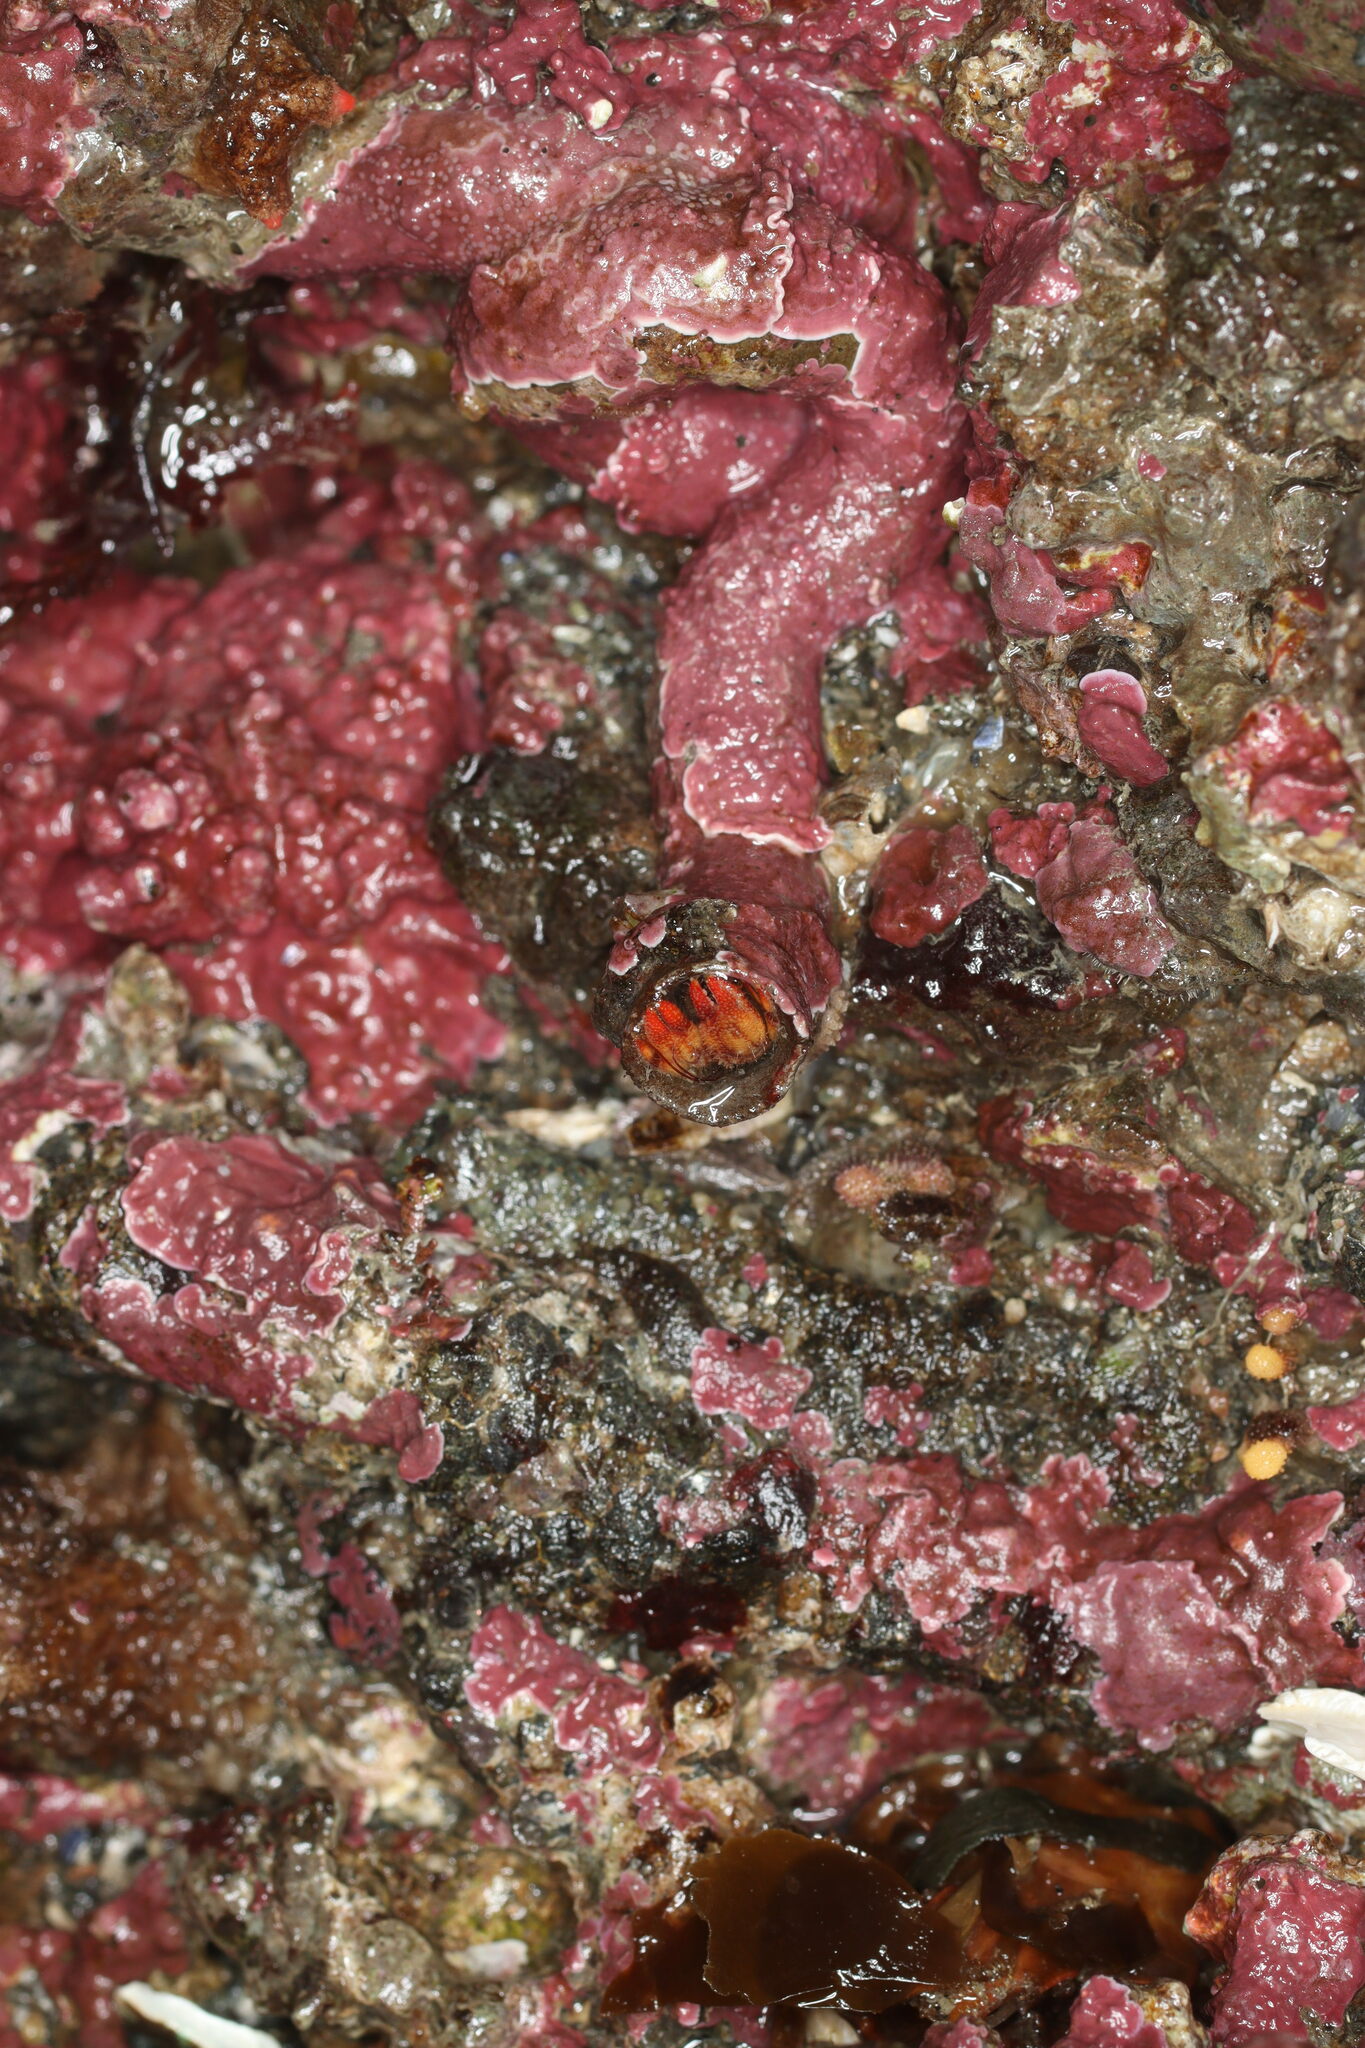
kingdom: Animalia
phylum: Arthropoda
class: Malacostraca
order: Decapoda
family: Paguridae
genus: Discorsopagurus
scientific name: Discorsopagurus schmitti
